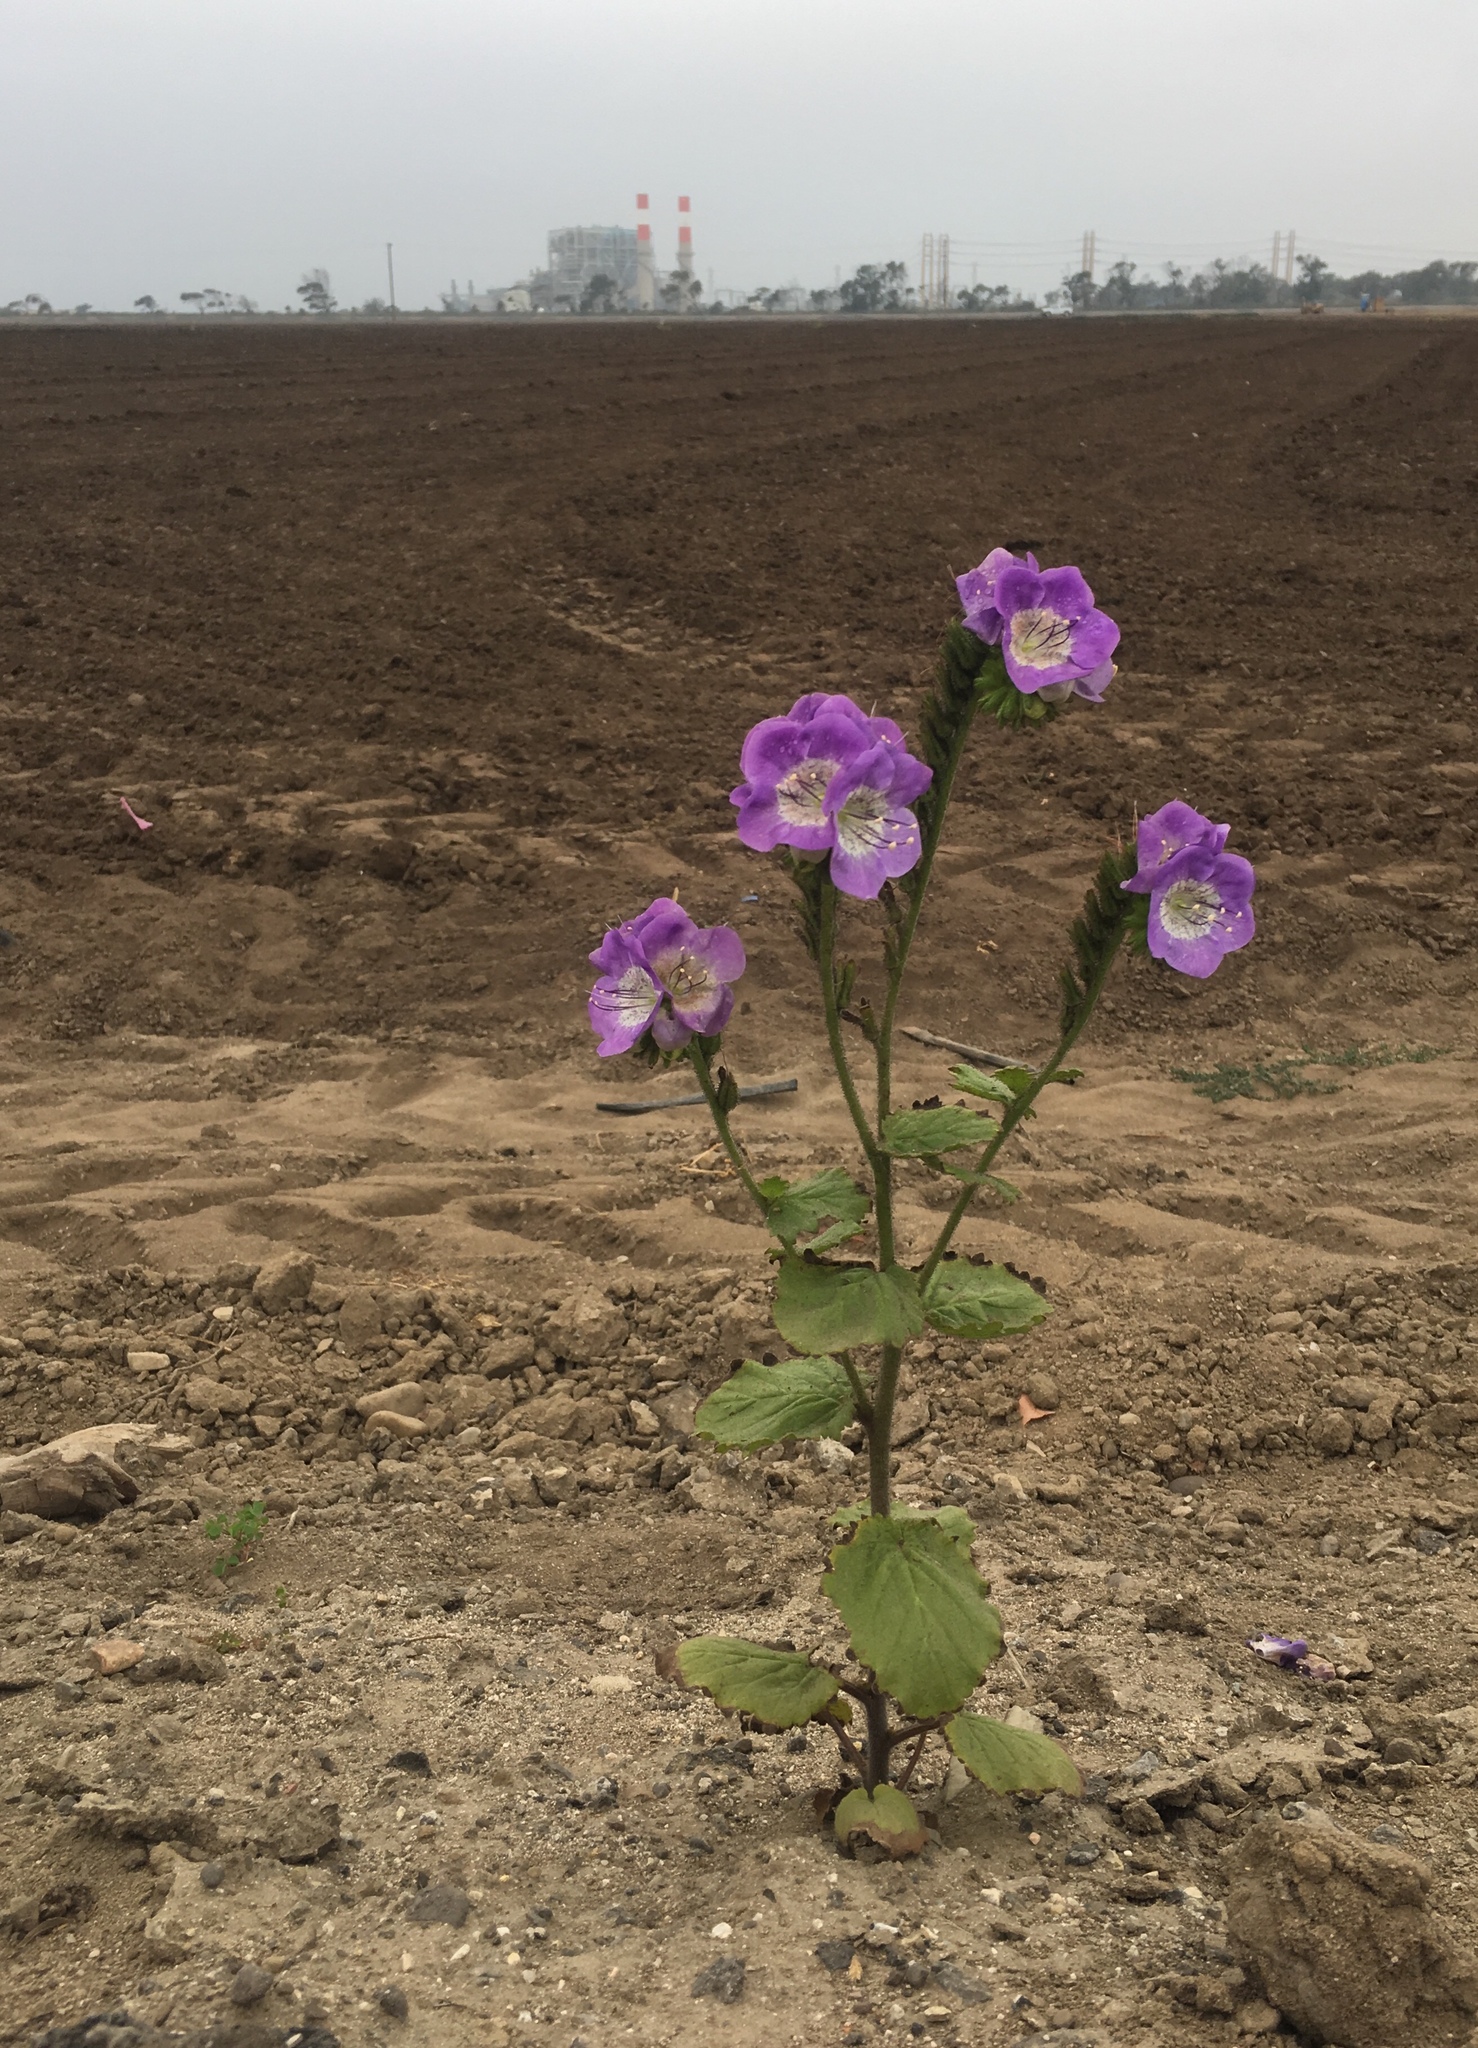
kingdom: Plantae
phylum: Tracheophyta
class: Magnoliopsida
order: Boraginales
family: Hydrophyllaceae
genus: Phacelia
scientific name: Phacelia grandiflora
